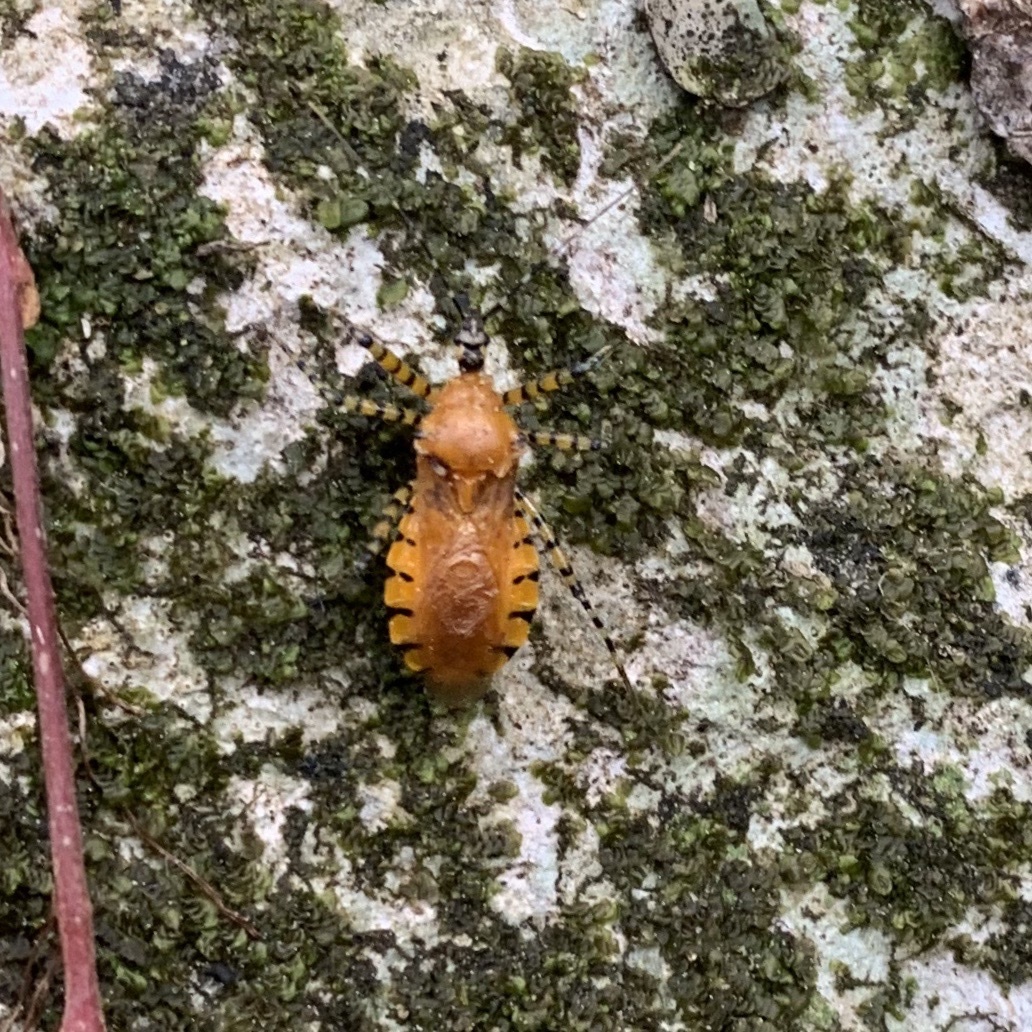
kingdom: Animalia
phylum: Arthropoda
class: Insecta
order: Hemiptera
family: Reduviidae
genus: Pselliopus
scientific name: Pselliopus barberi
